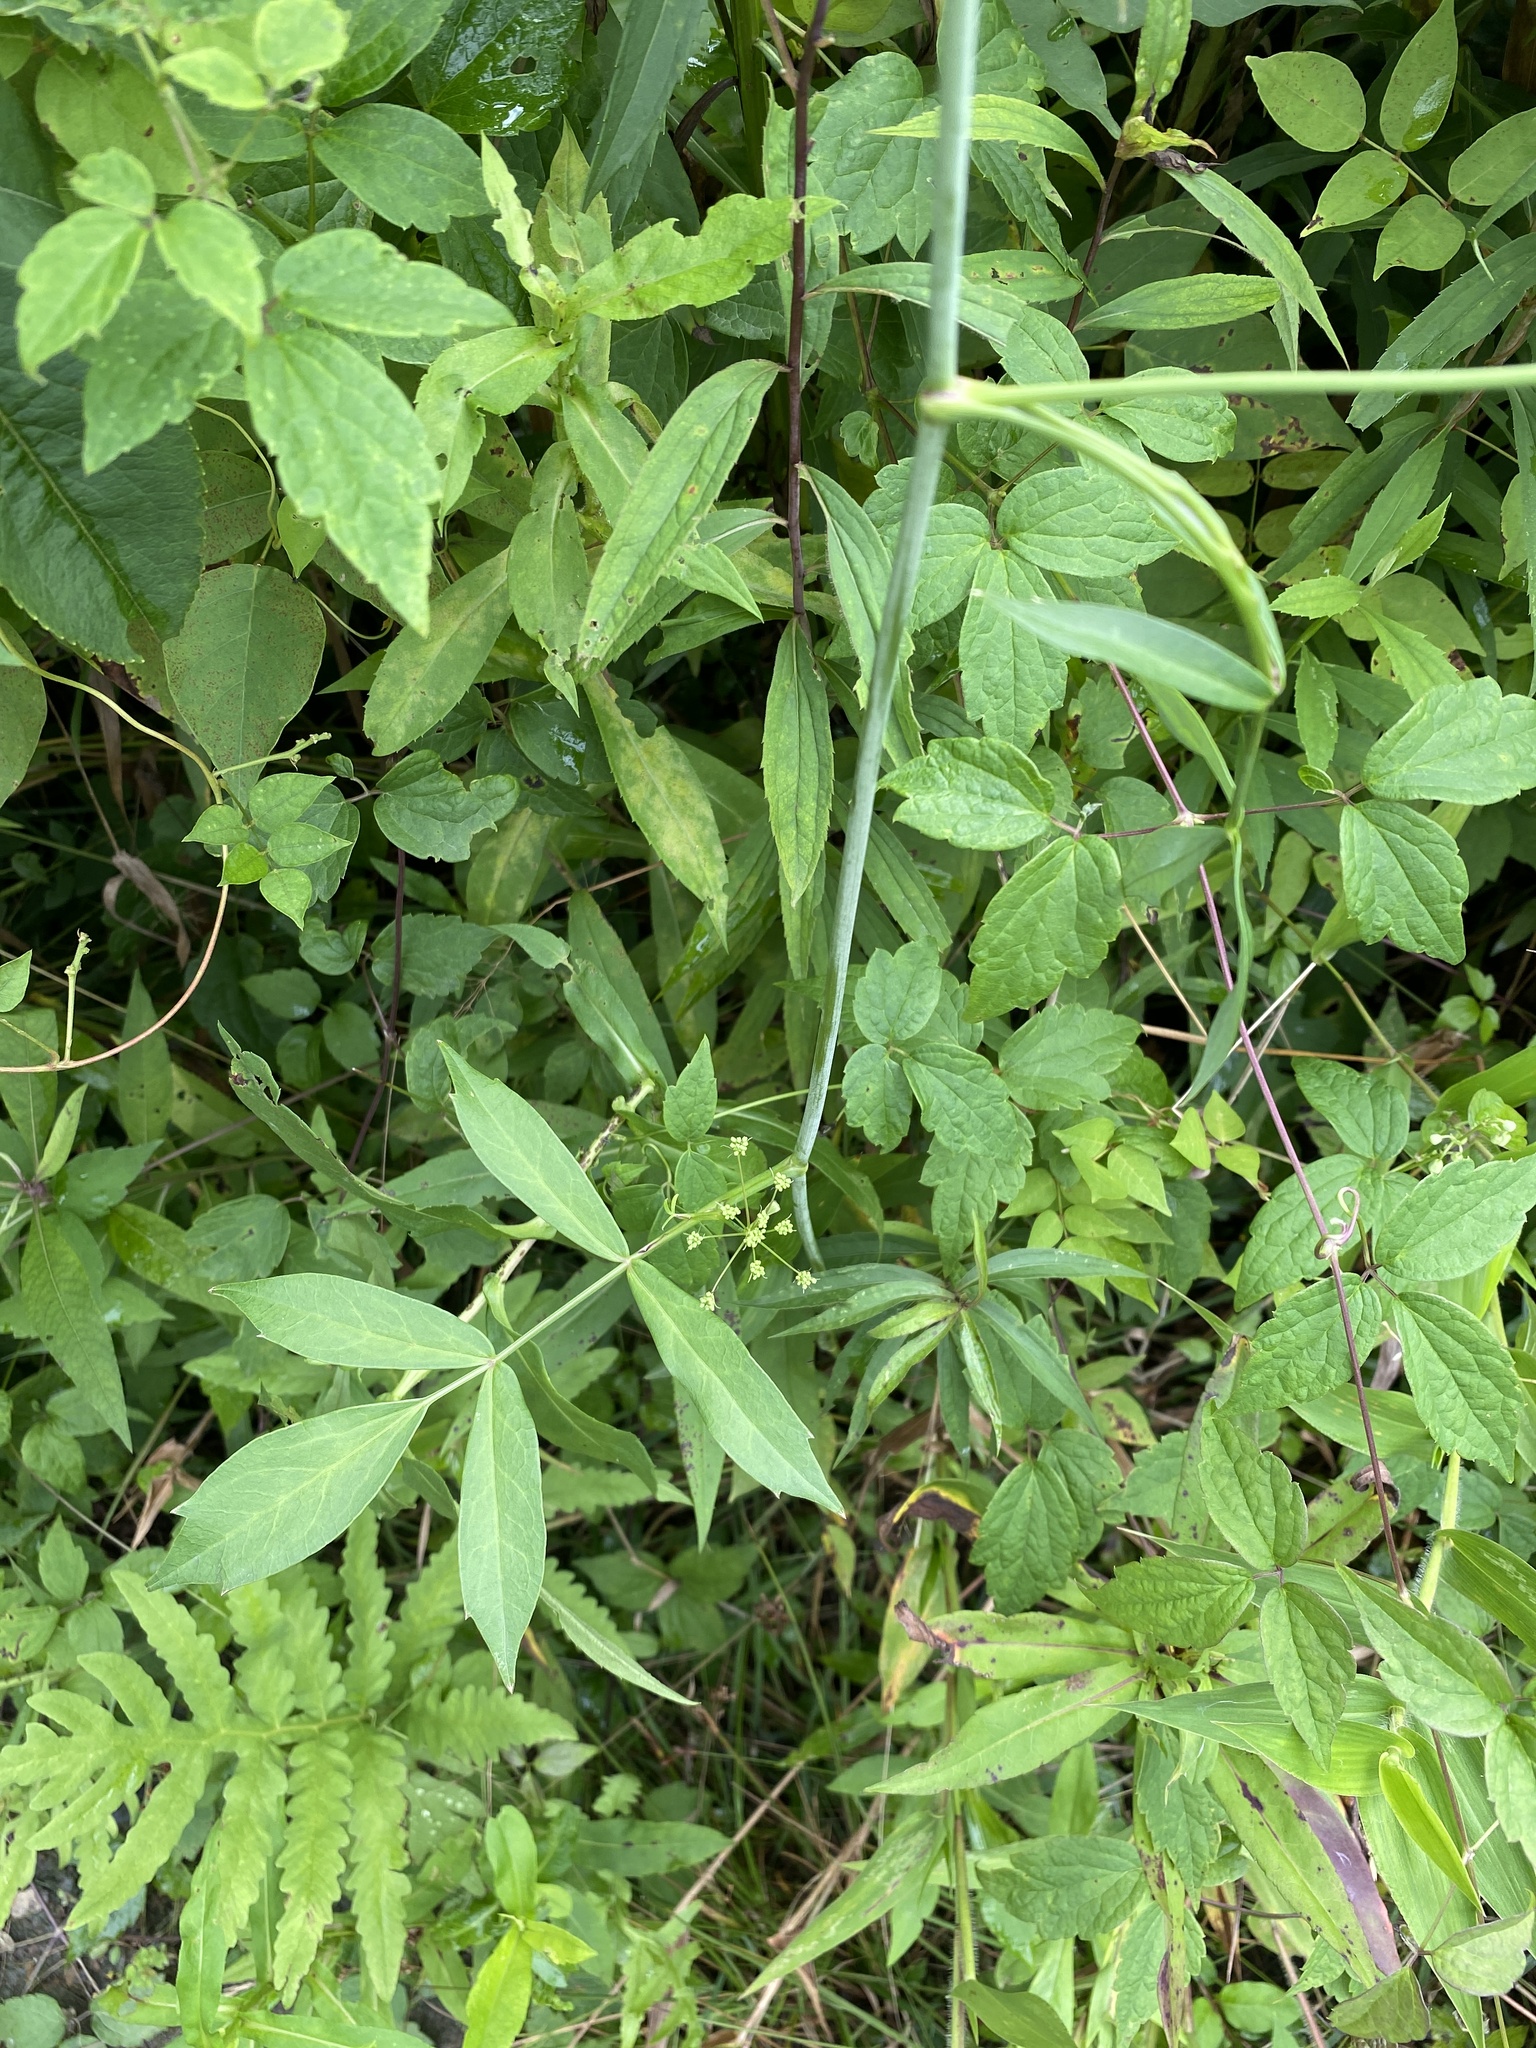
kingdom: Plantae
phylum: Tracheophyta
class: Magnoliopsida
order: Apiales
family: Apiaceae
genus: Oxypolis
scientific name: Oxypolis rigidior
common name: Cowbane
